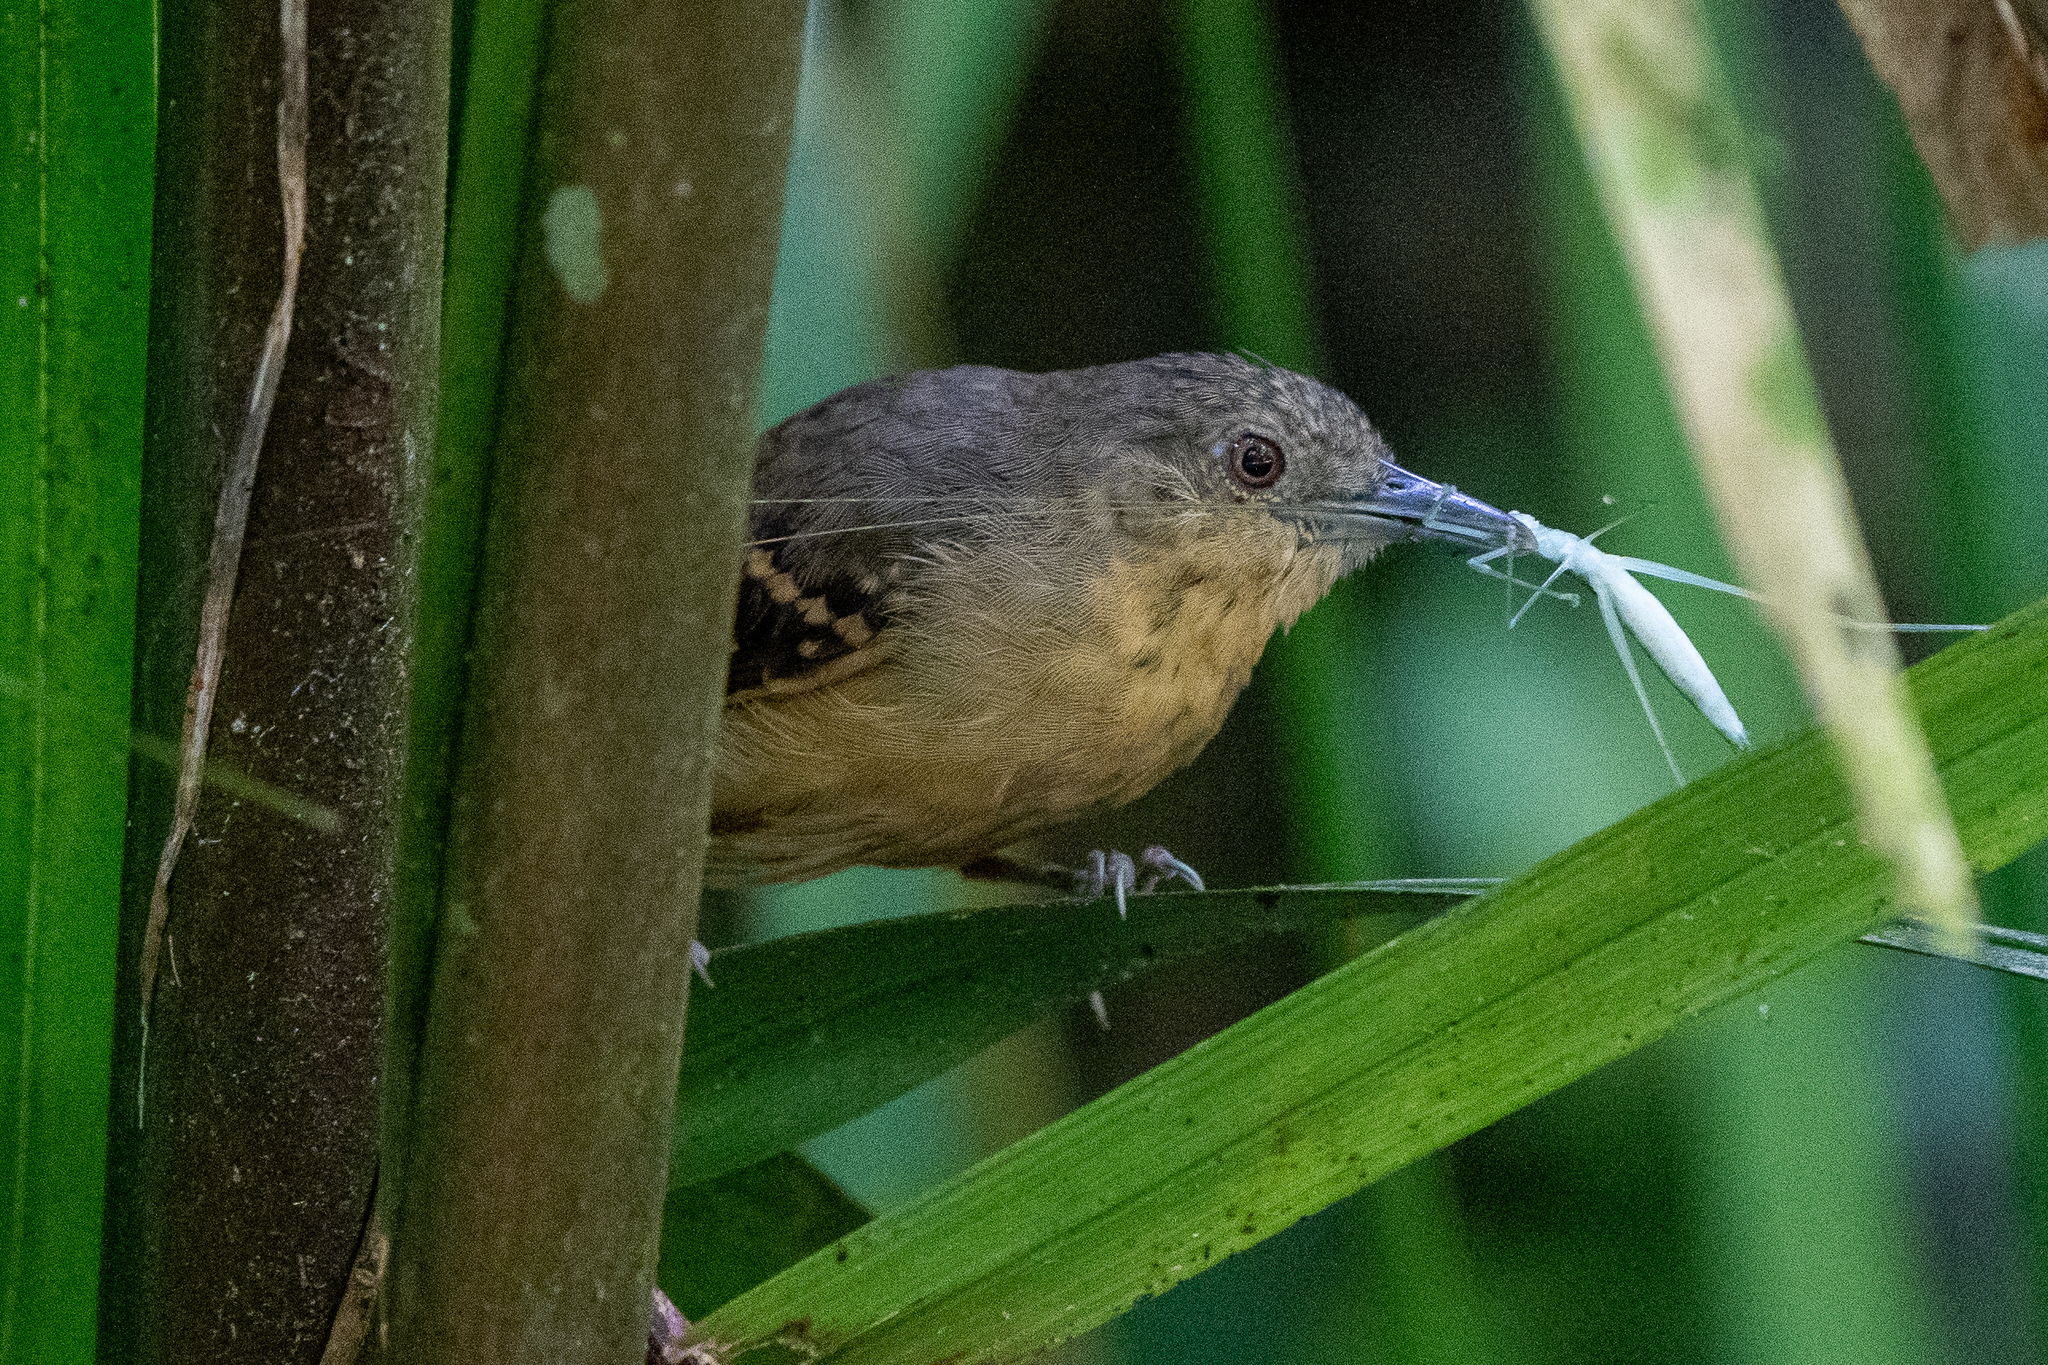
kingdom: Animalia
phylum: Chordata
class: Aves
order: Passeriformes
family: Thamnophilidae
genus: Epinecrophylla
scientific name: Epinecrophylla fulviventris
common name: Checker-throated antwren
